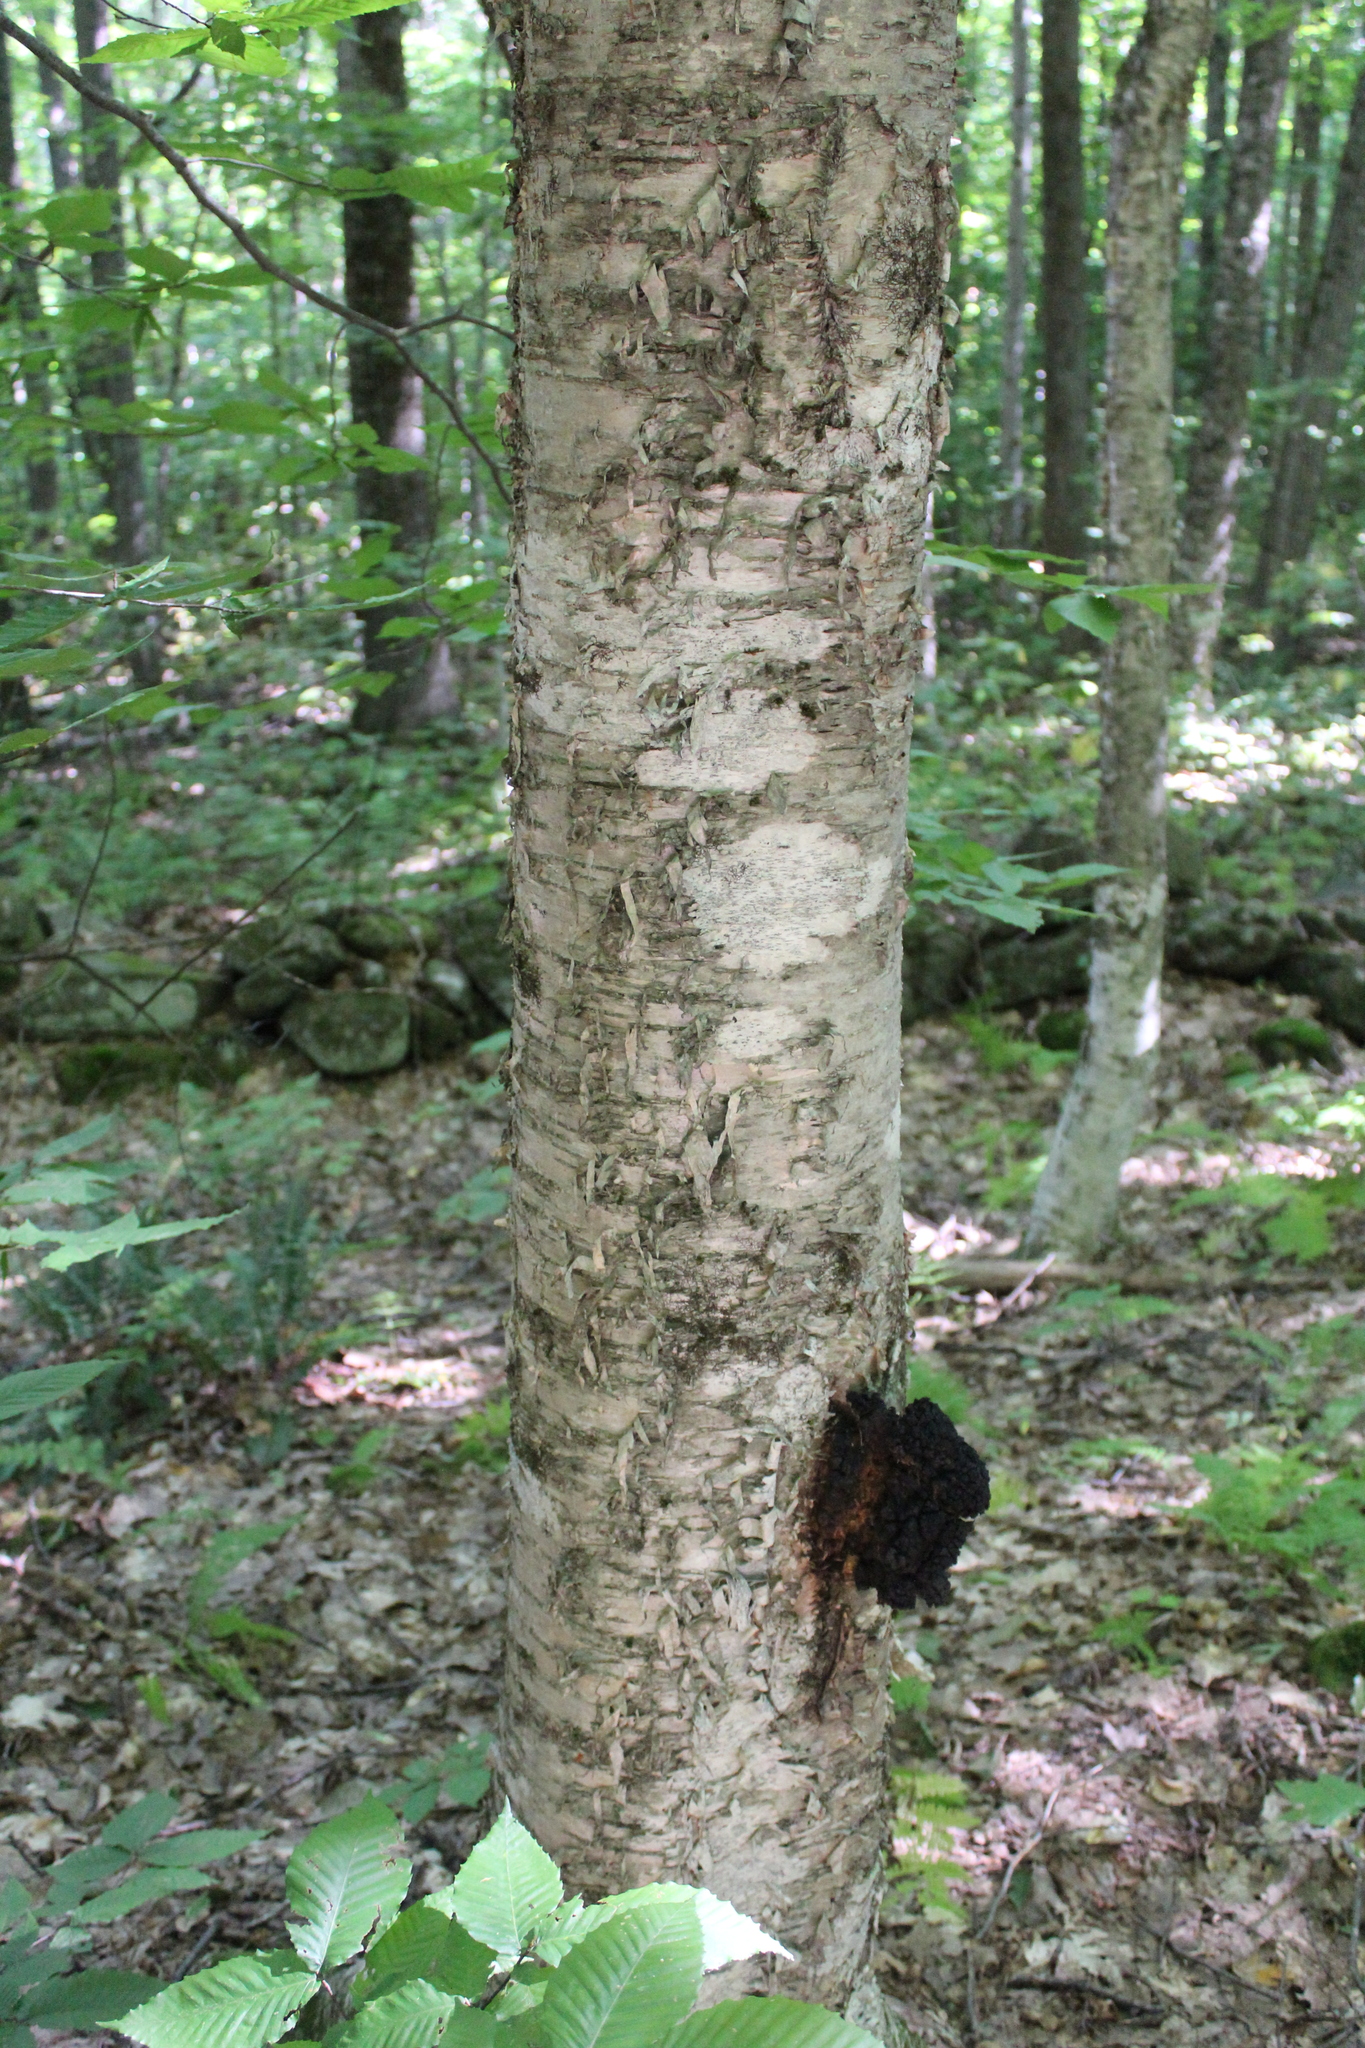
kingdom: Plantae
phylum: Tracheophyta
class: Magnoliopsida
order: Fagales
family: Betulaceae
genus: Betula
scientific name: Betula alleghaniensis
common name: Yellow birch
